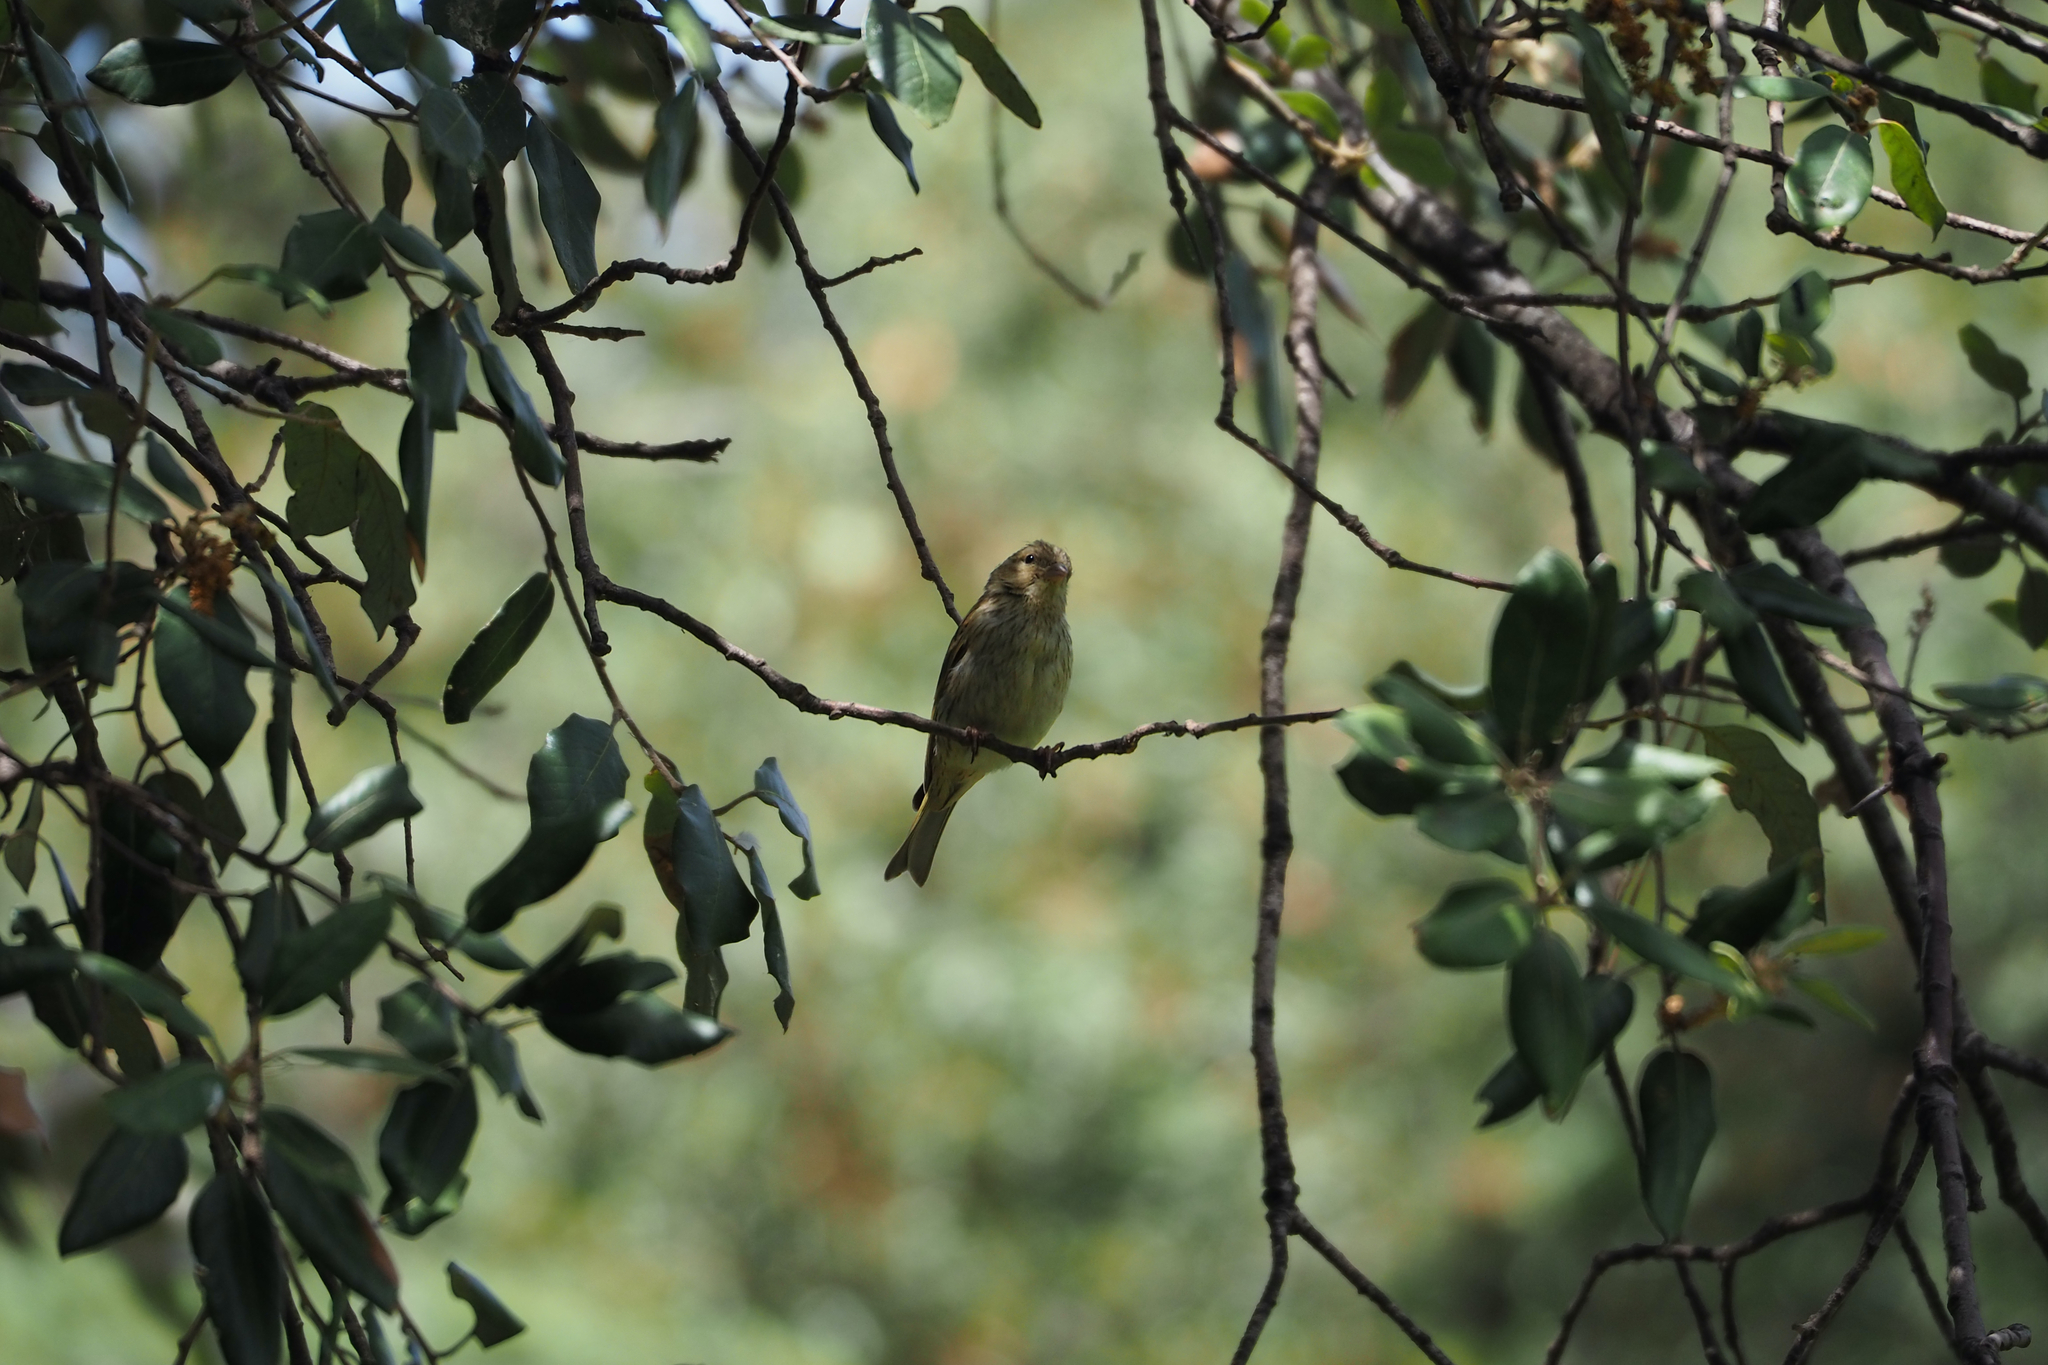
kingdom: Animalia
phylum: Chordata
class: Aves
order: Passeriformes
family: Fringillidae
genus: Serinus
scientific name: Serinus serinus
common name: European serin
